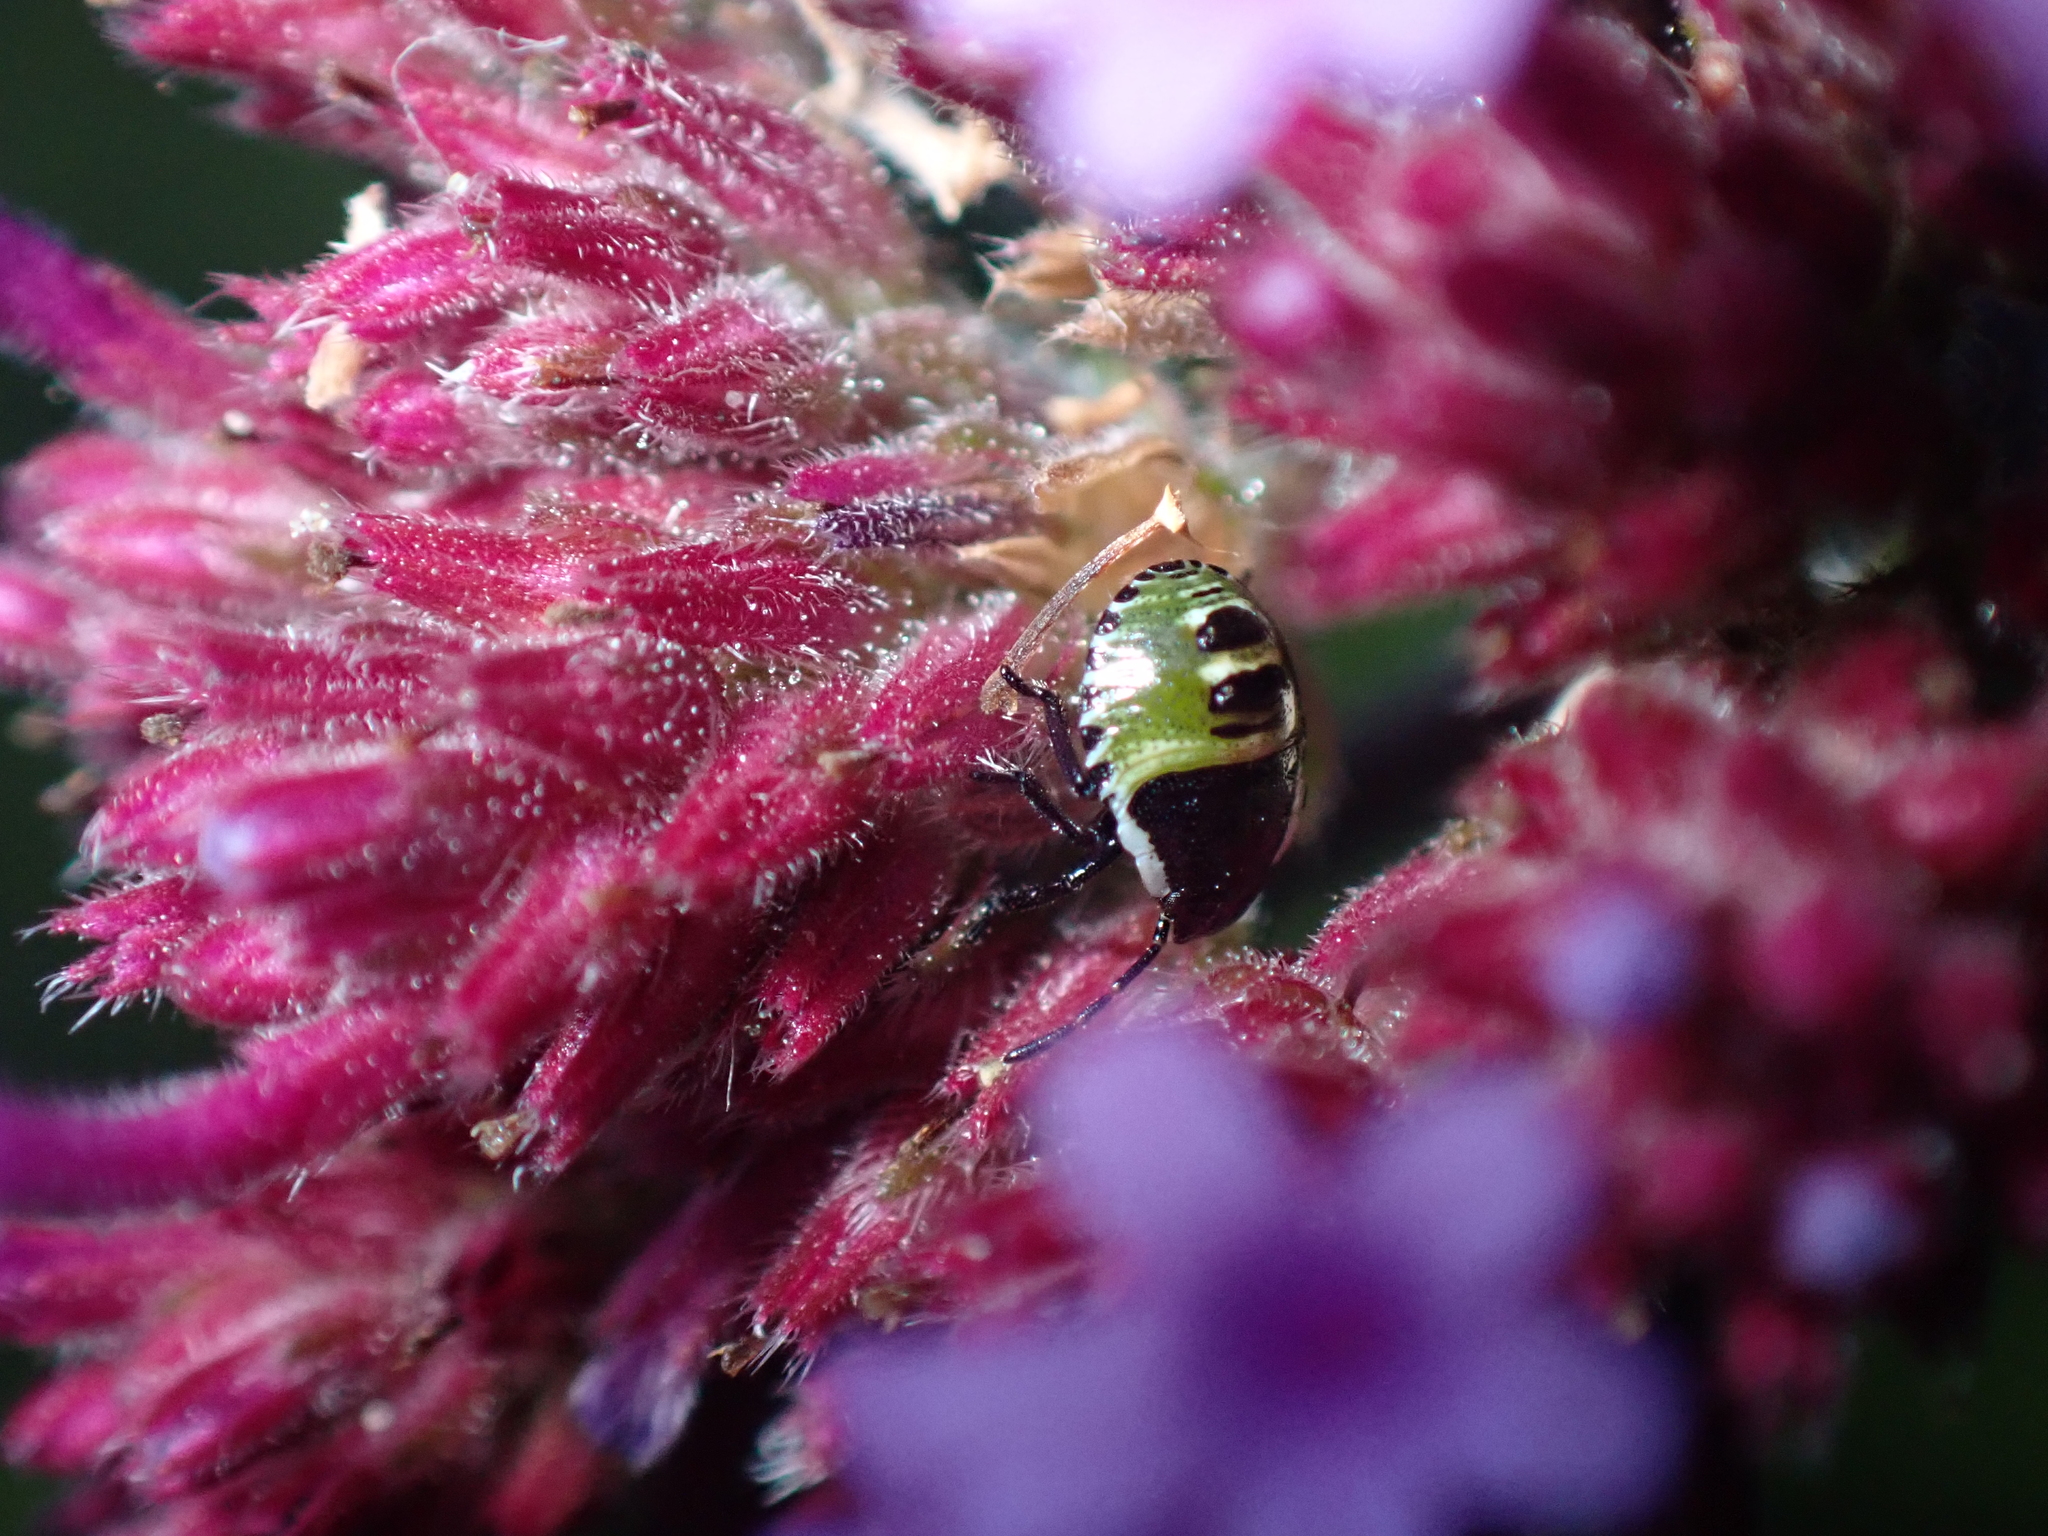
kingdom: Animalia
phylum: Arthropoda
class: Insecta
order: Hemiptera
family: Pentatomidae
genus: Palomena
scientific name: Palomena prasina
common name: Green shieldbug
